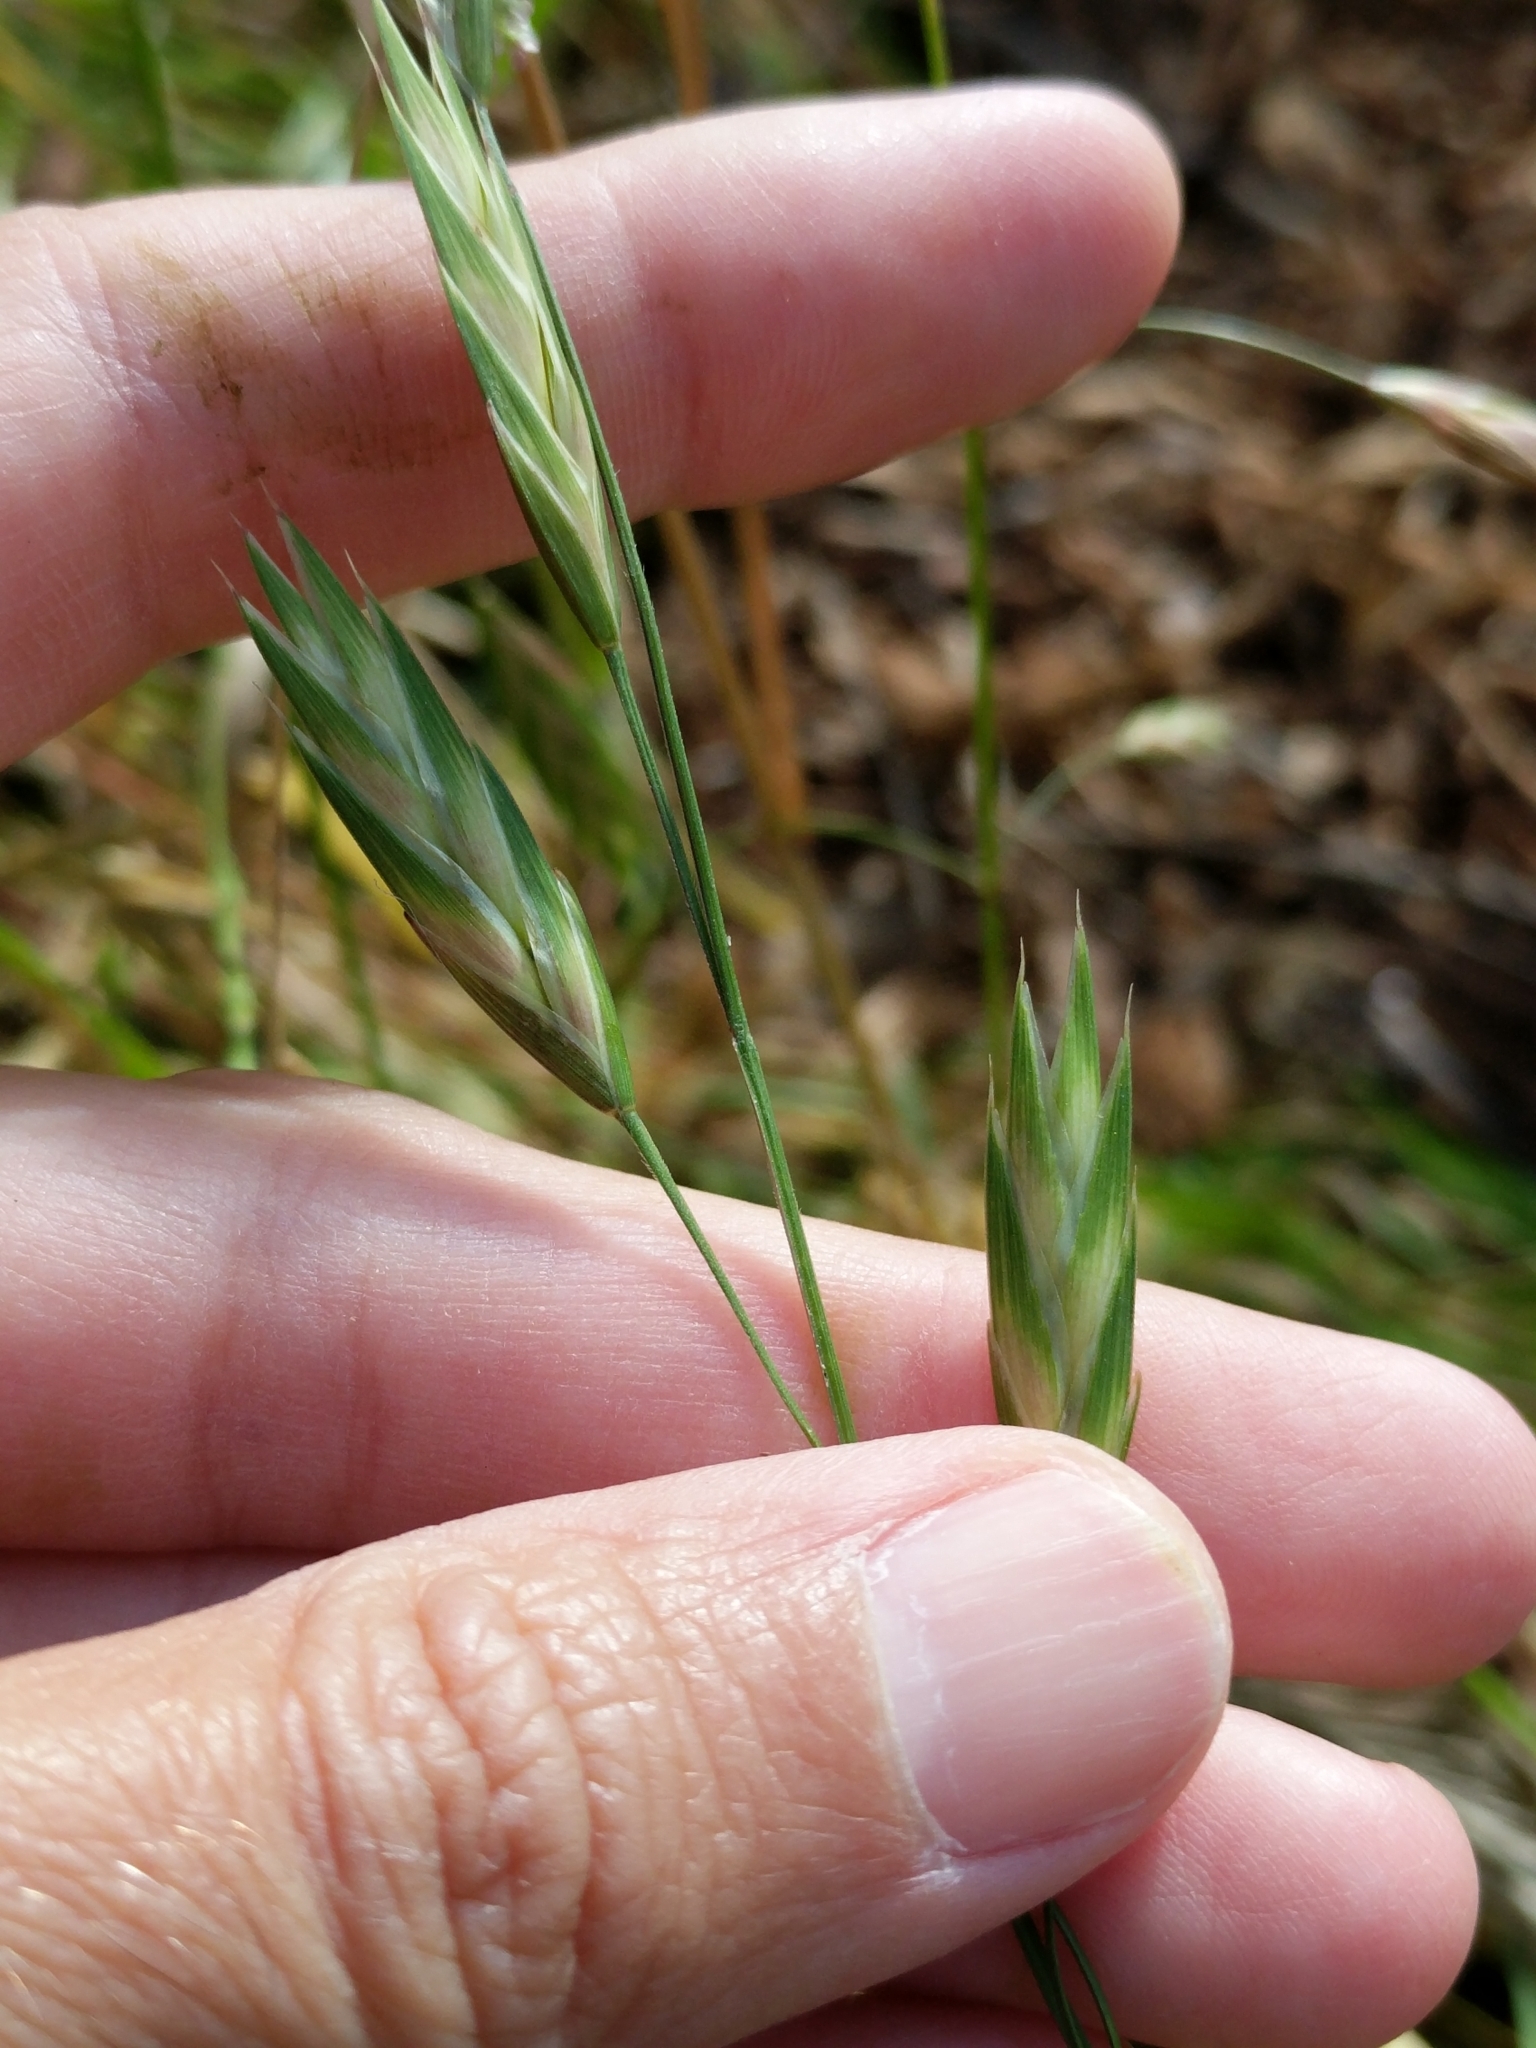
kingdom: Plantae
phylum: Tracheophyta
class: Liliopsida
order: Poales
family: Poaceae
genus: Bromus
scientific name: Bromus catharticus
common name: Rescuegrass
